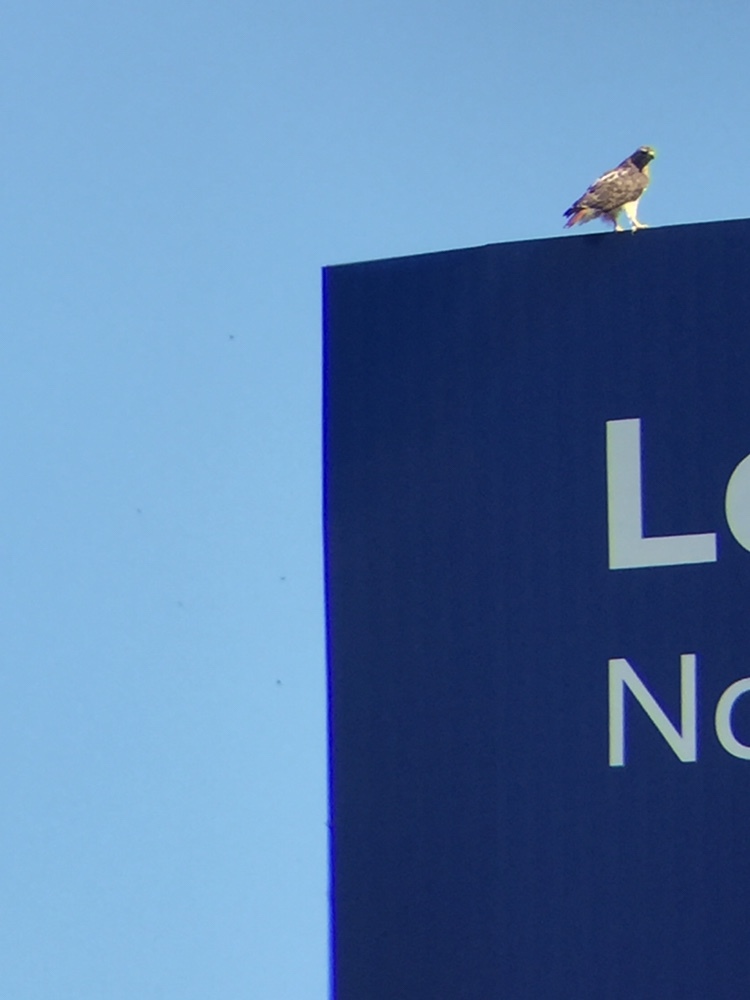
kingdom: Animalia
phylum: Chordata
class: Aves
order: Accipitriformes
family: Accipitridae
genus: Buteo
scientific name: Buteo jamaicensis
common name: Red-tailed hawk
